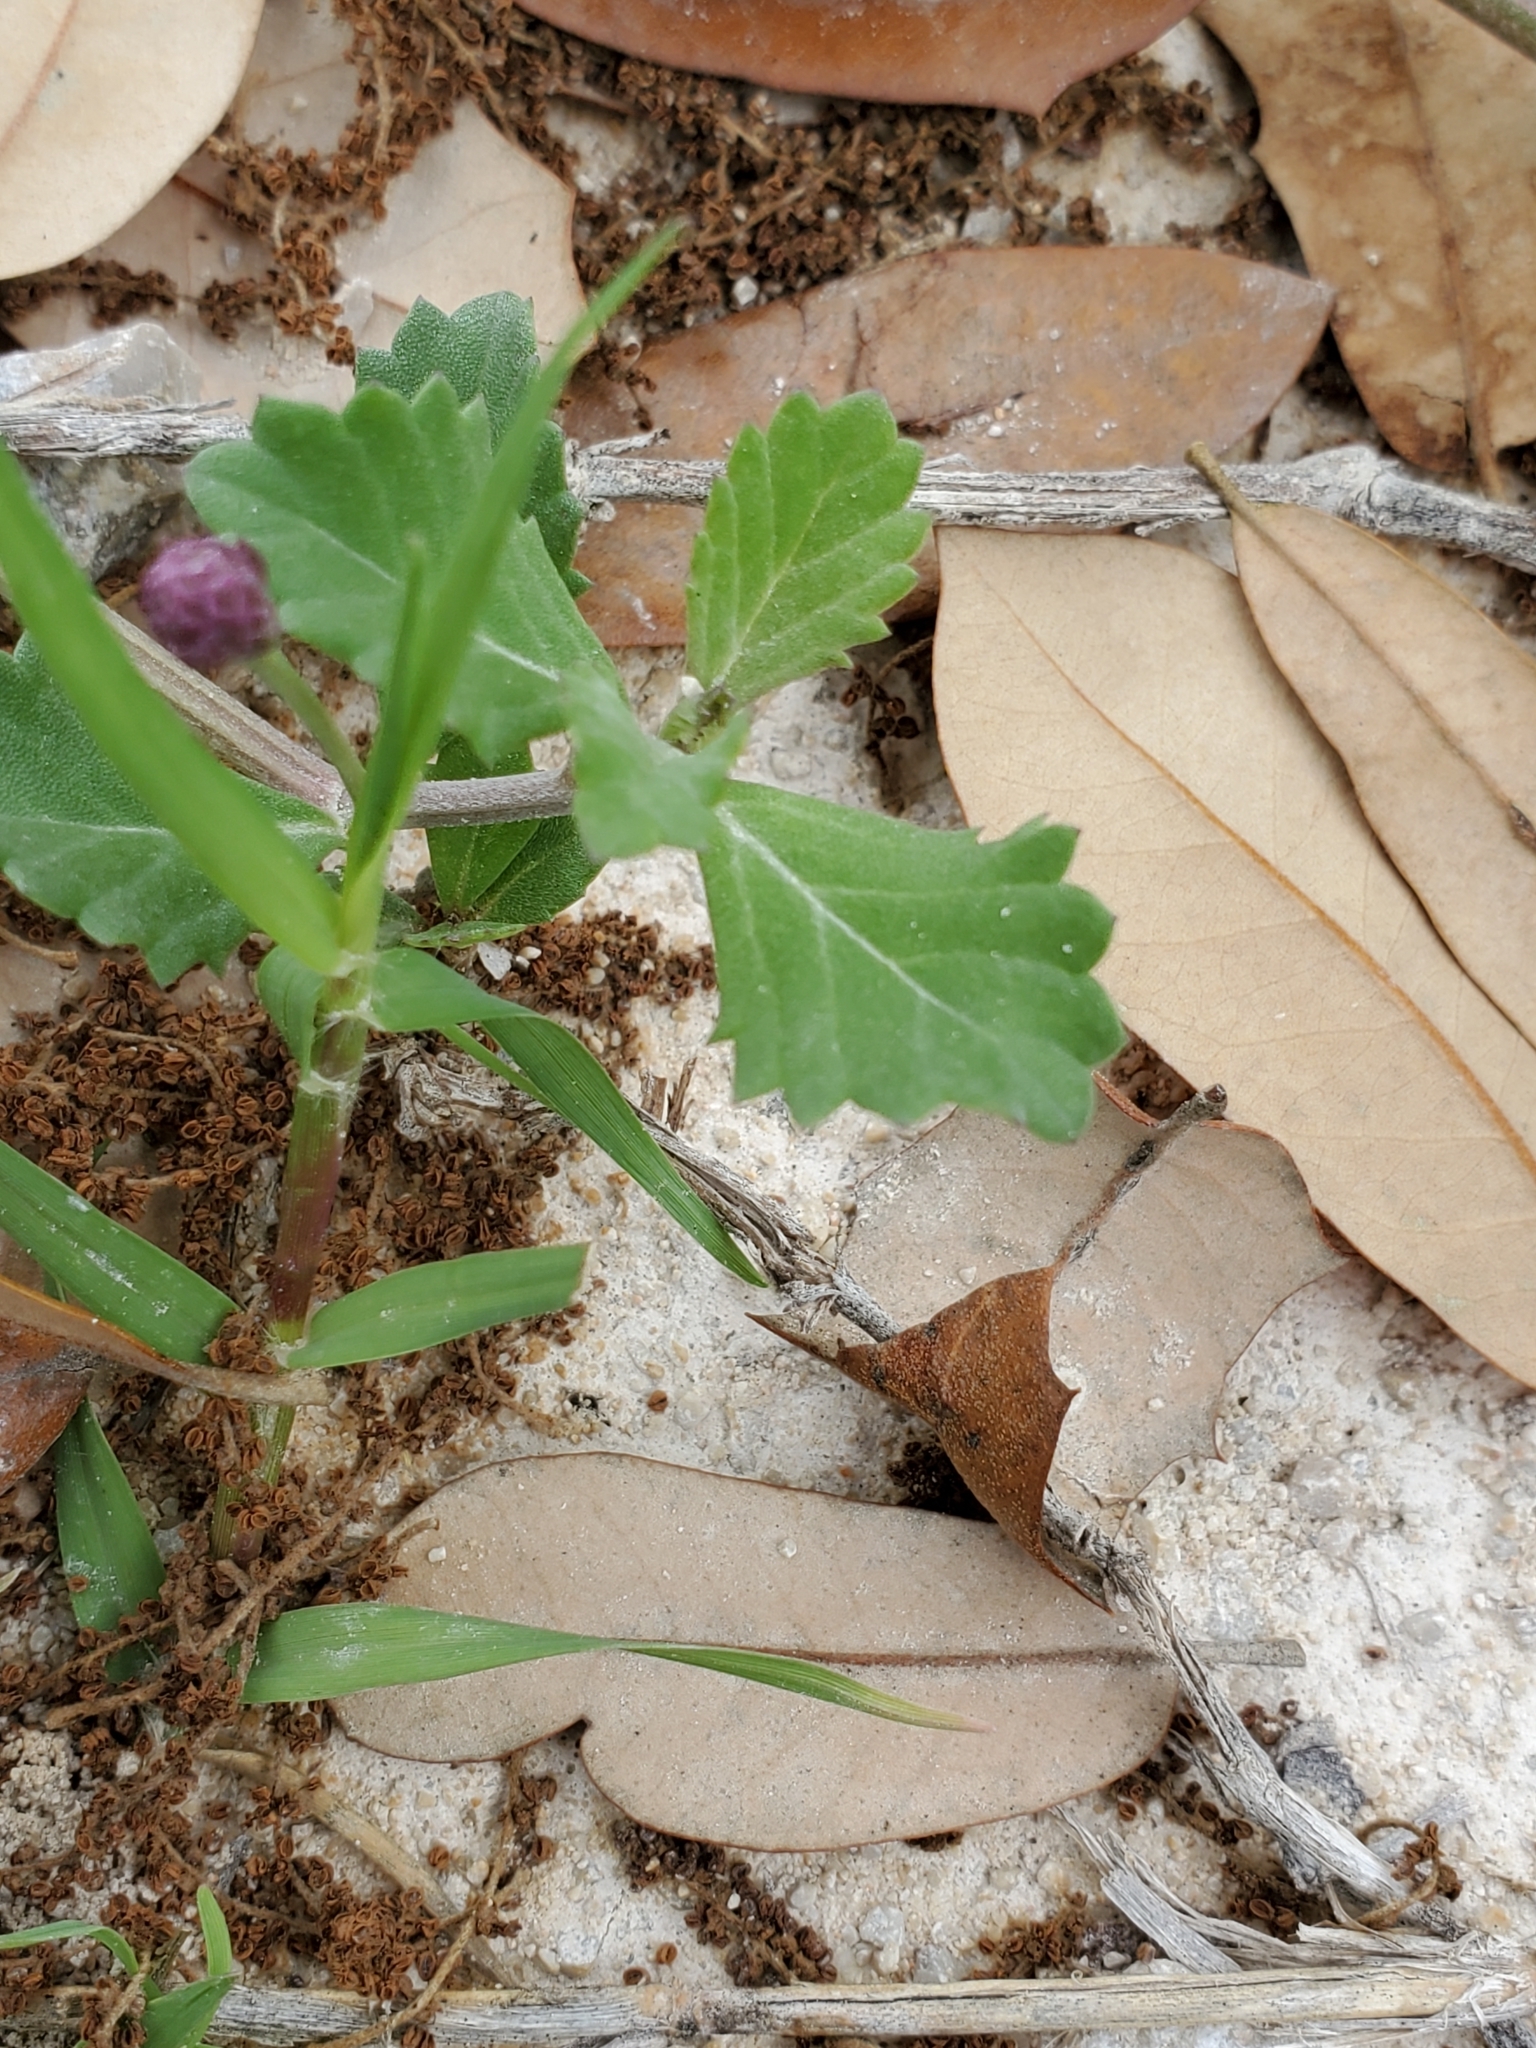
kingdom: Plantae
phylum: Tracheophyta
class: Magnoliopsida
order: Lamiales
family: Verbenaceae
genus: Phyla
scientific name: Phyla nodiflora
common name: Frogfruit
